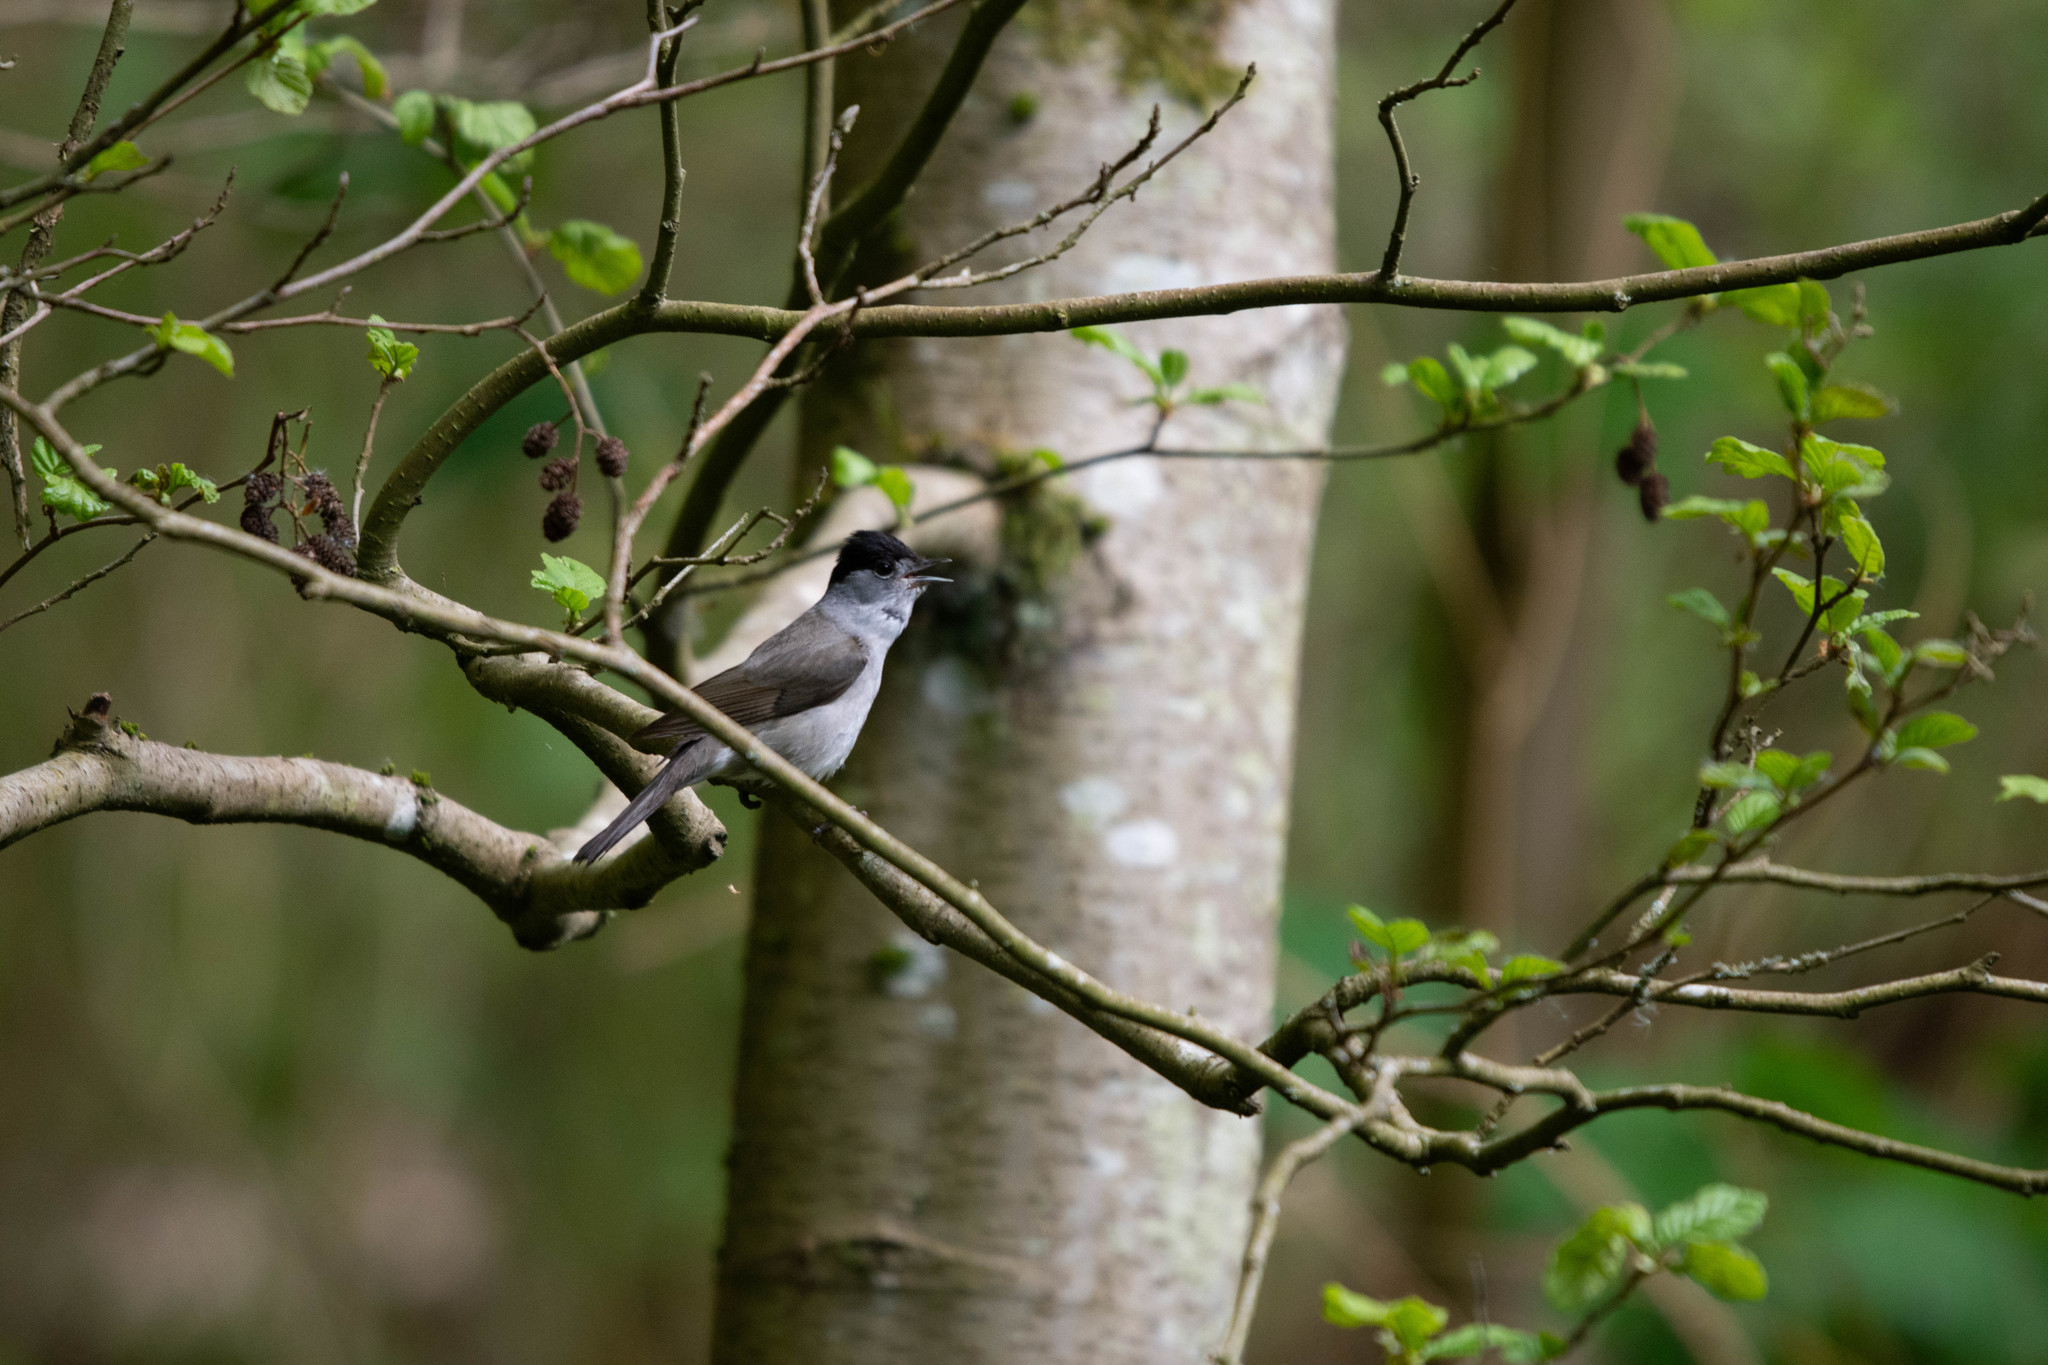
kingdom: Animalia
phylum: Chordata
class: Aves
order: Passeriformes
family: Sylviidae
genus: Sylvia
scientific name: Sylvia atricapilla
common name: Eurasian blackcap
